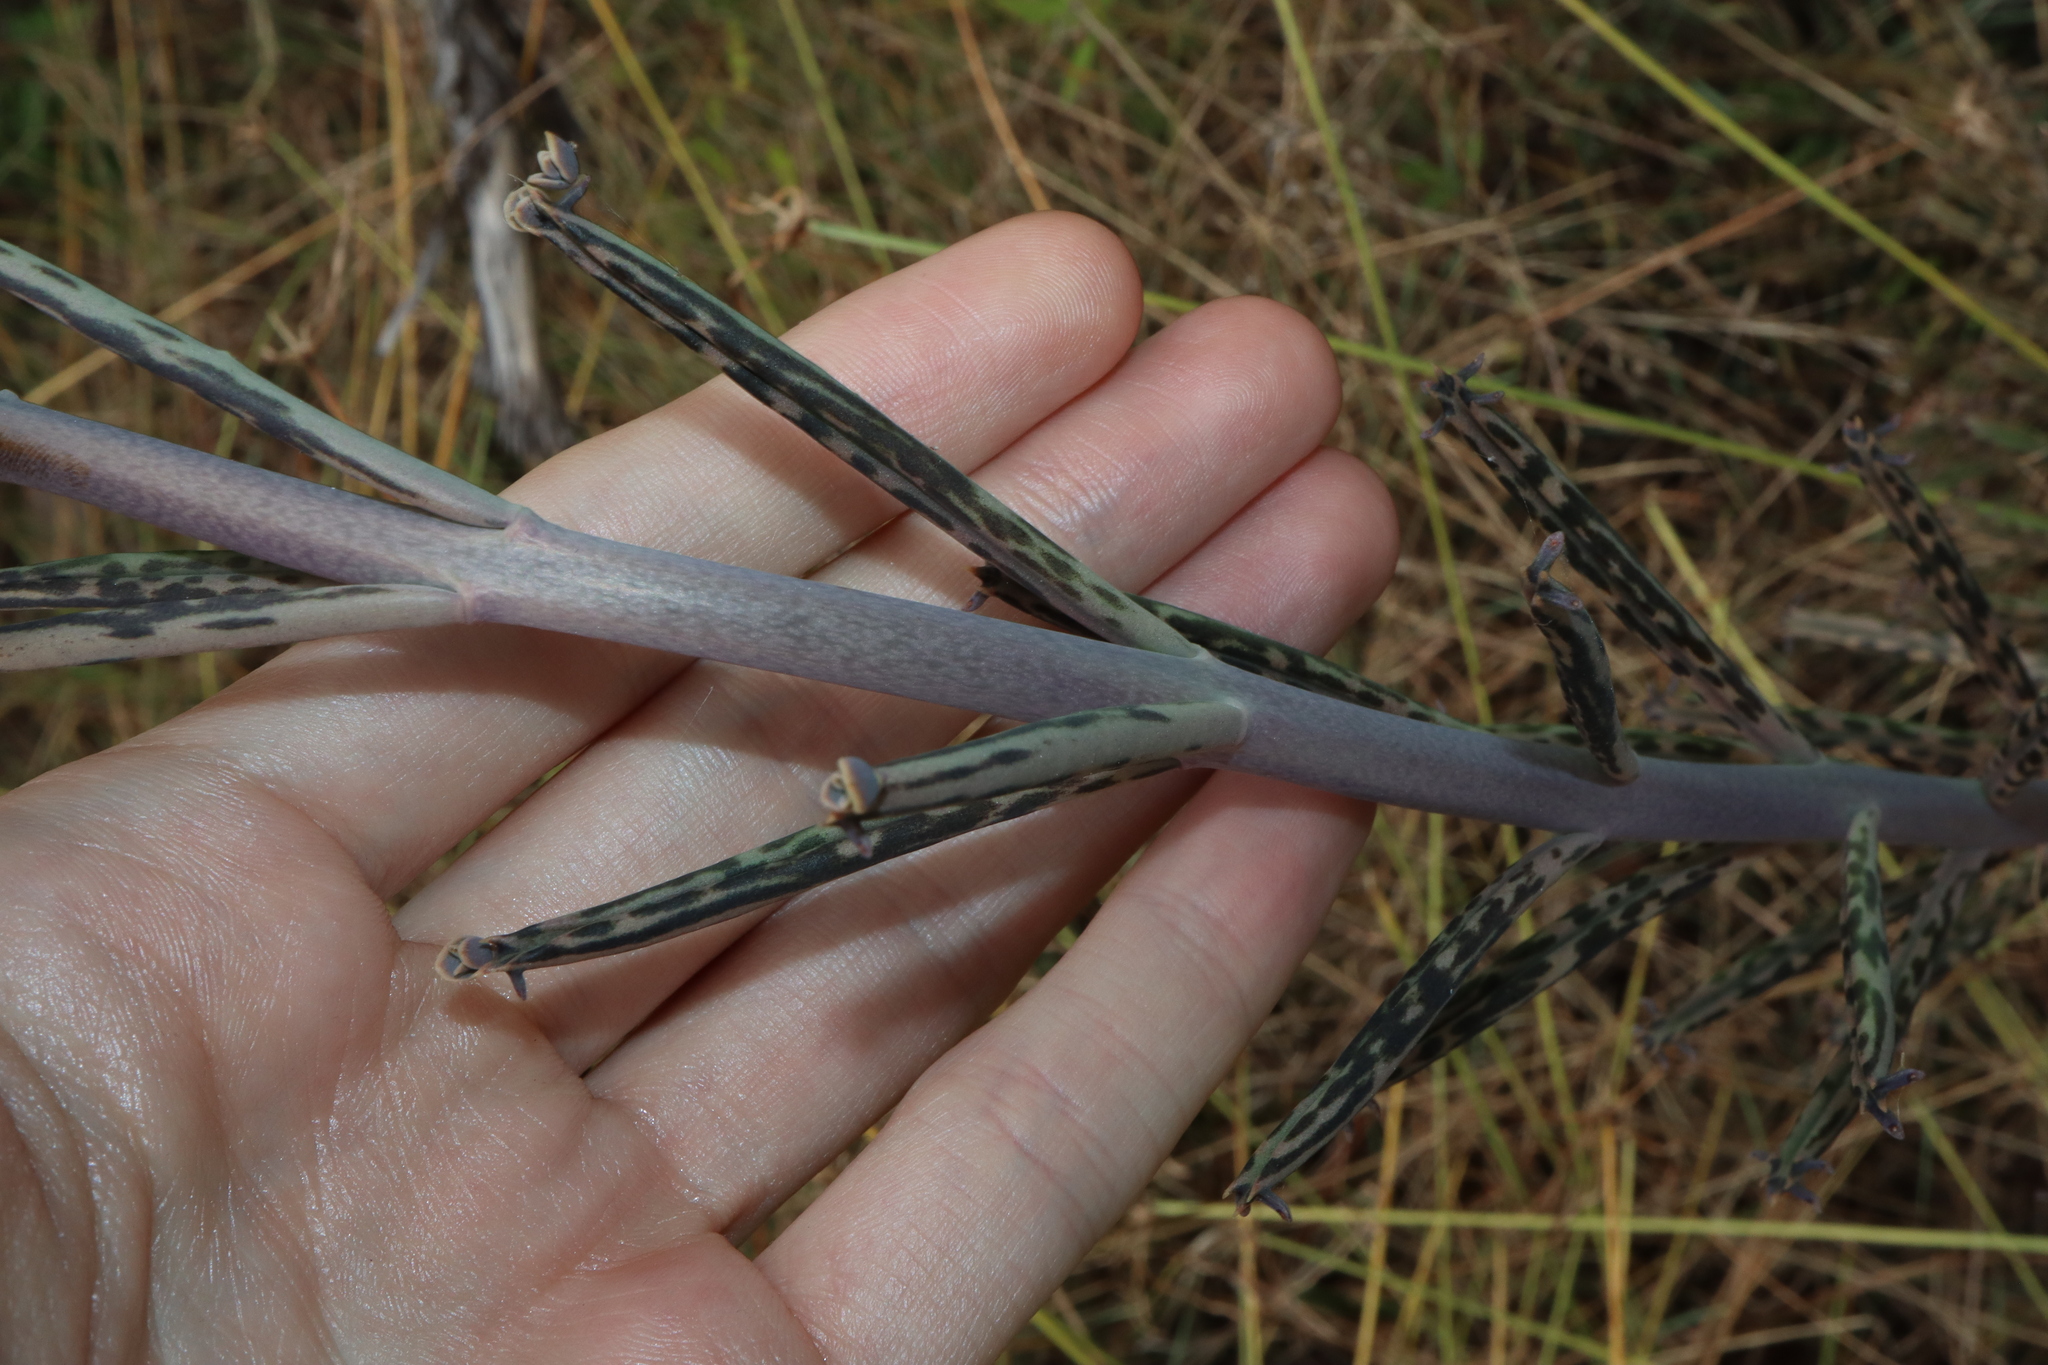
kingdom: Plantae
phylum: Tracheophyta
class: Magnoliopsida
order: Saxifragales
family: Crassulaceae
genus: Kalanchoe
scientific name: Kalanchoe delagoensis
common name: Chandelier plant
